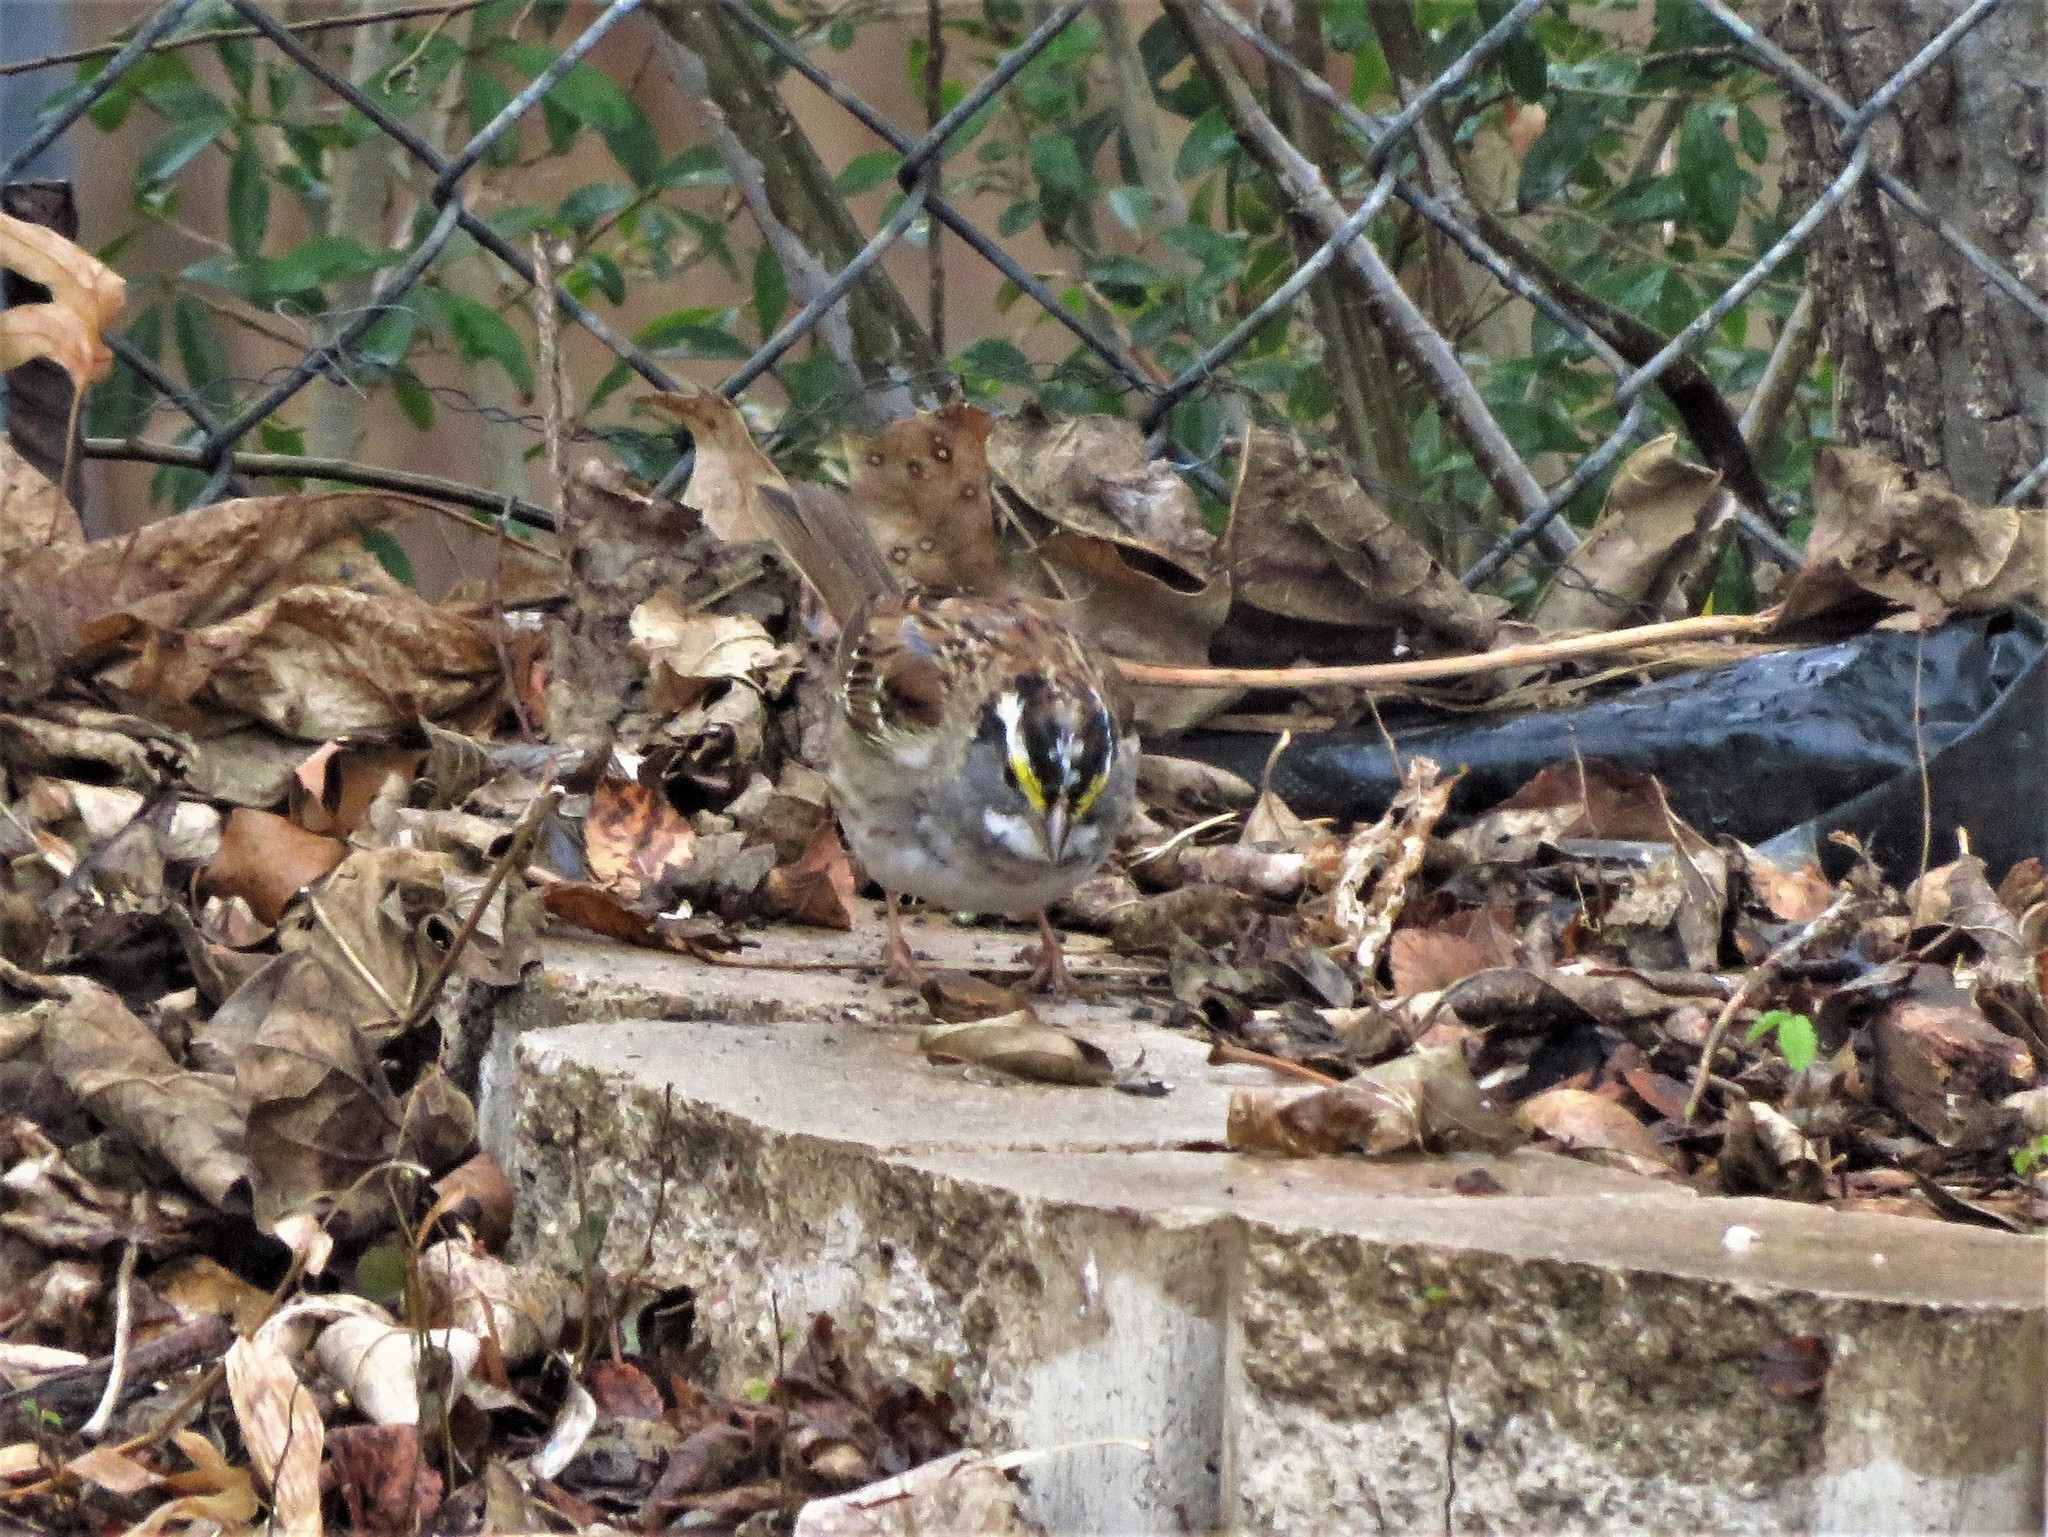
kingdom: Animalia
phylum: Chordata
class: Aves
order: Passeriformes
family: Passerellidae
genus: Zonotrichia
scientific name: Zonotrichia albicollis
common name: White-throated sparrow
